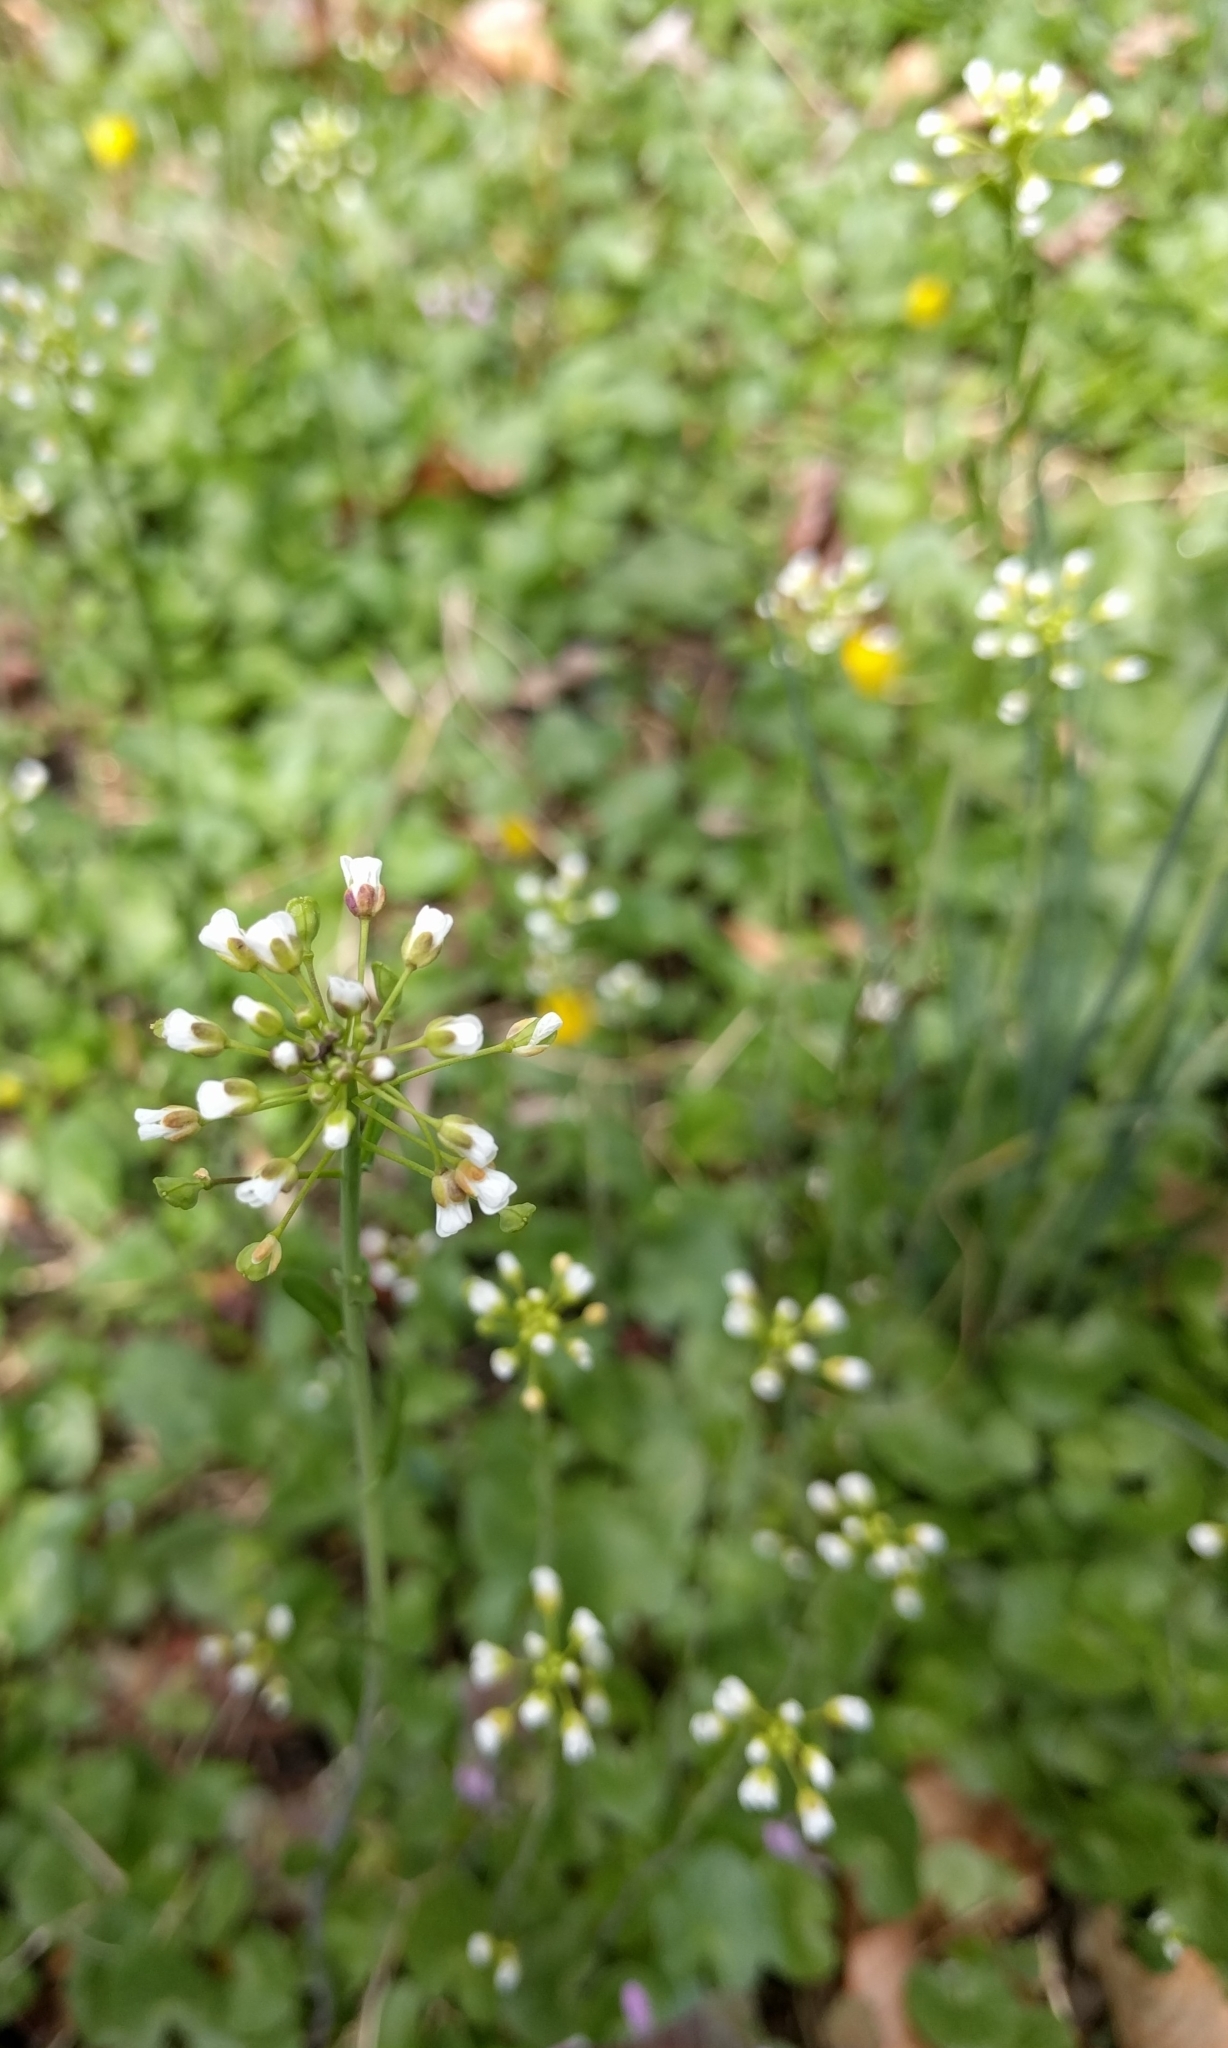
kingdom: Plantae
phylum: Tracheophyta
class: Magnoliopsida
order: Brassicales
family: Brassicaceae
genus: Mummenhoffia
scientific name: Mummenhoffia alliacea
